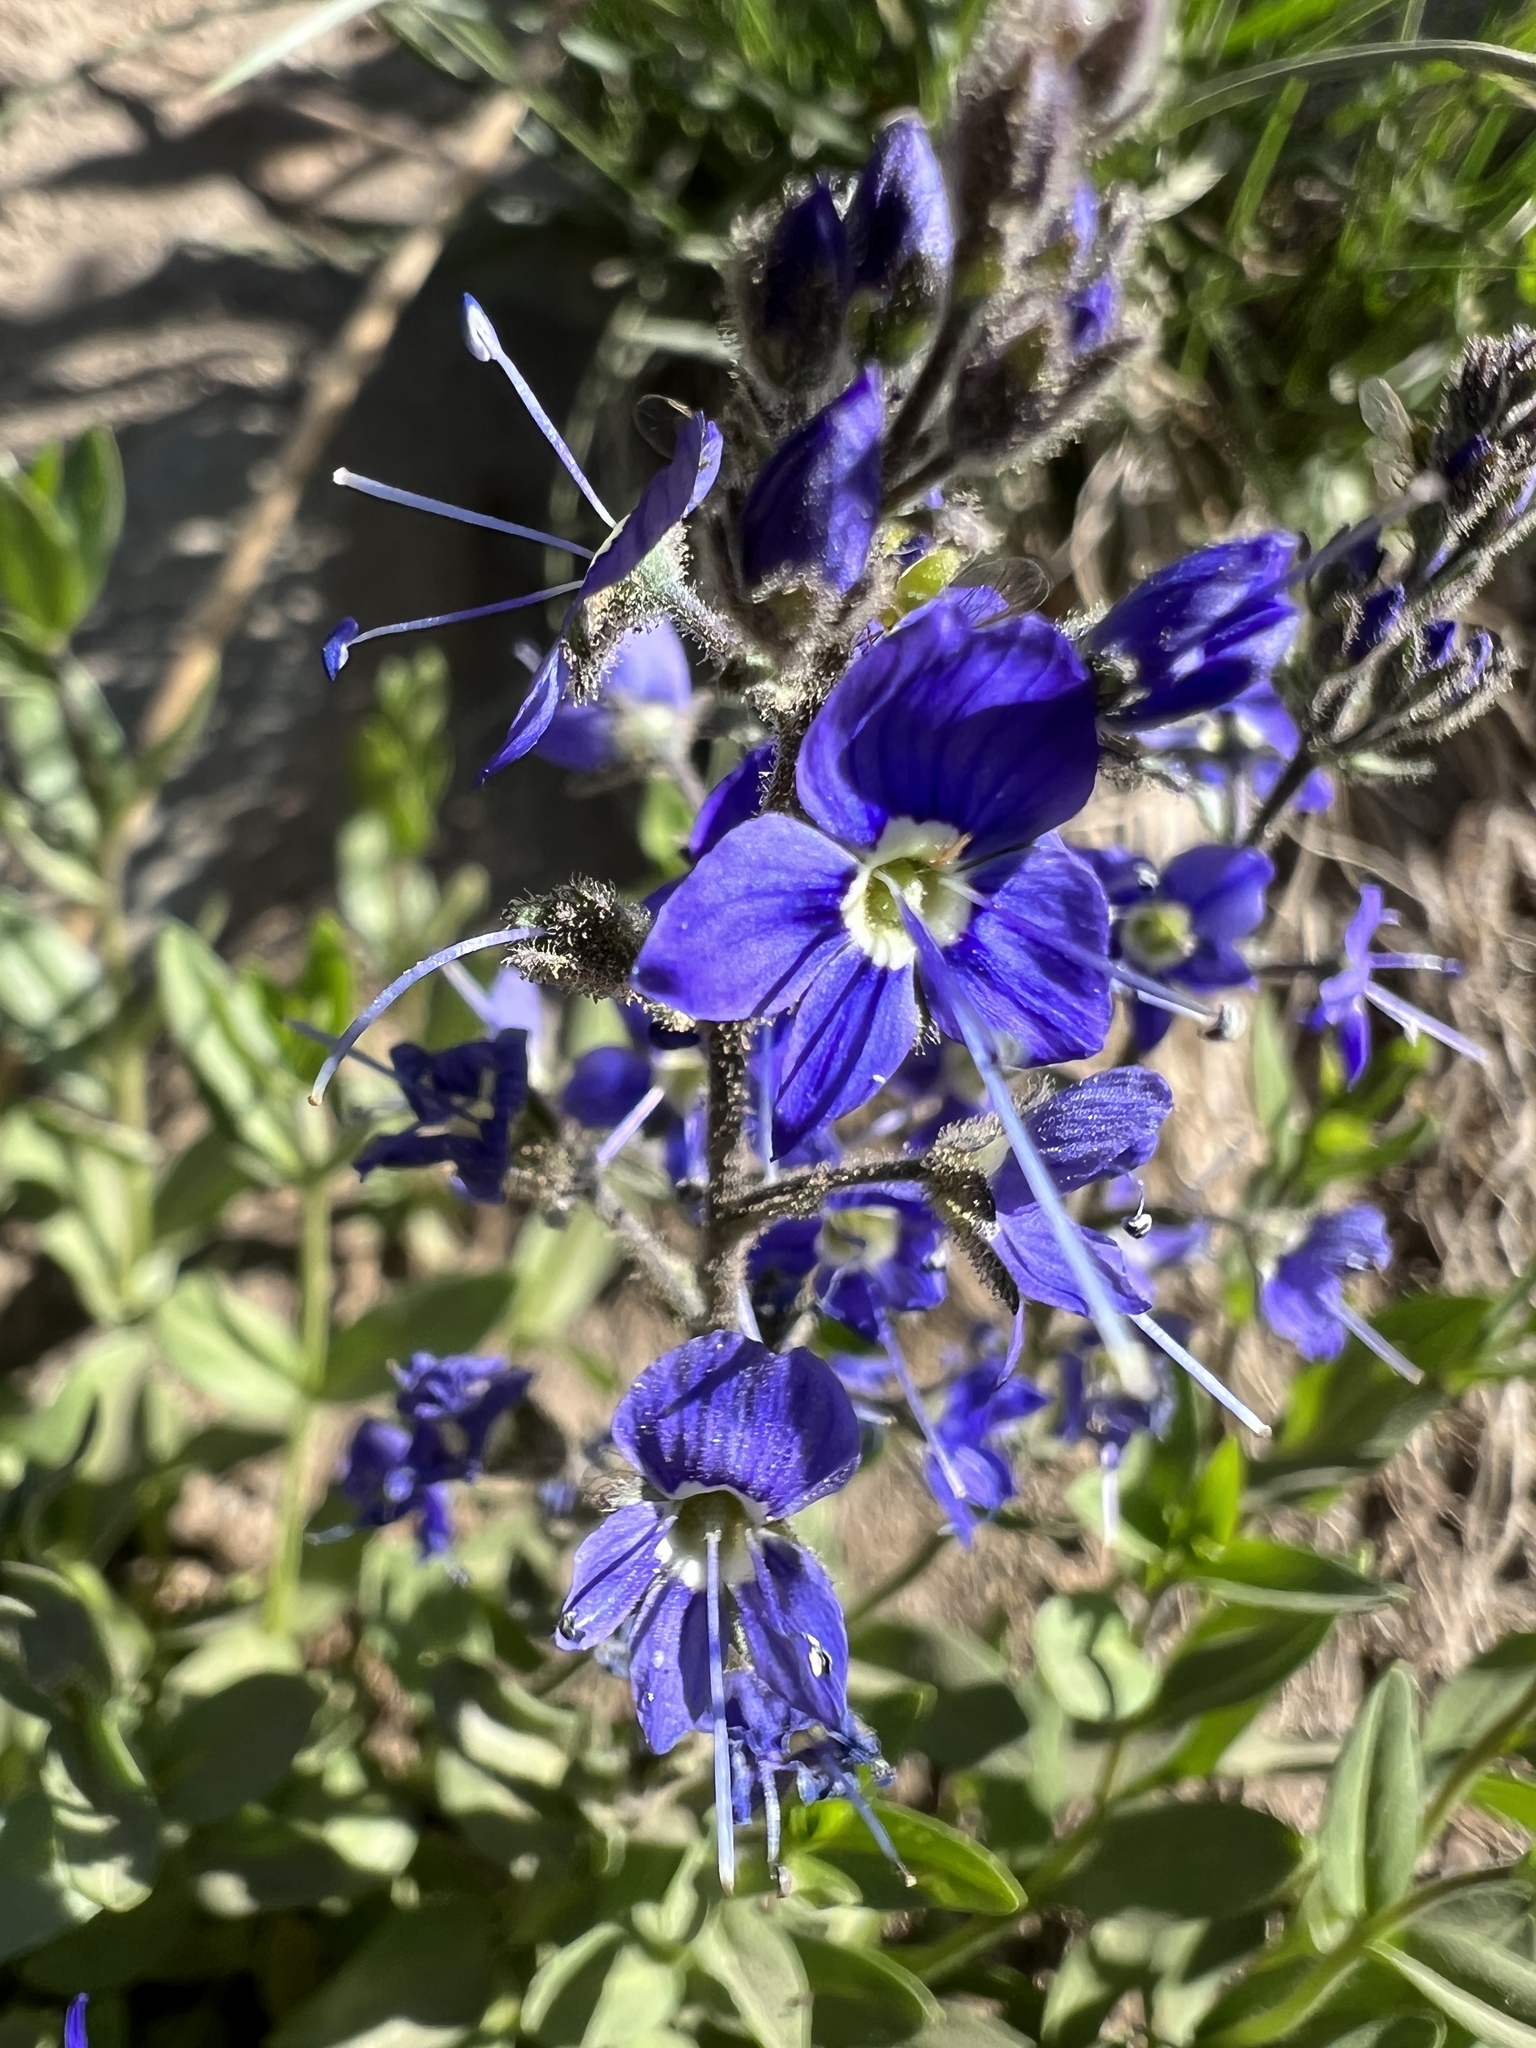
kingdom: Plantae
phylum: Tracheophyta
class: Magnoliopsida
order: Lamiales
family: Plantaginaceae
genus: Veronica
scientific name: Veronica cusickii
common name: Cusick's speedwell
